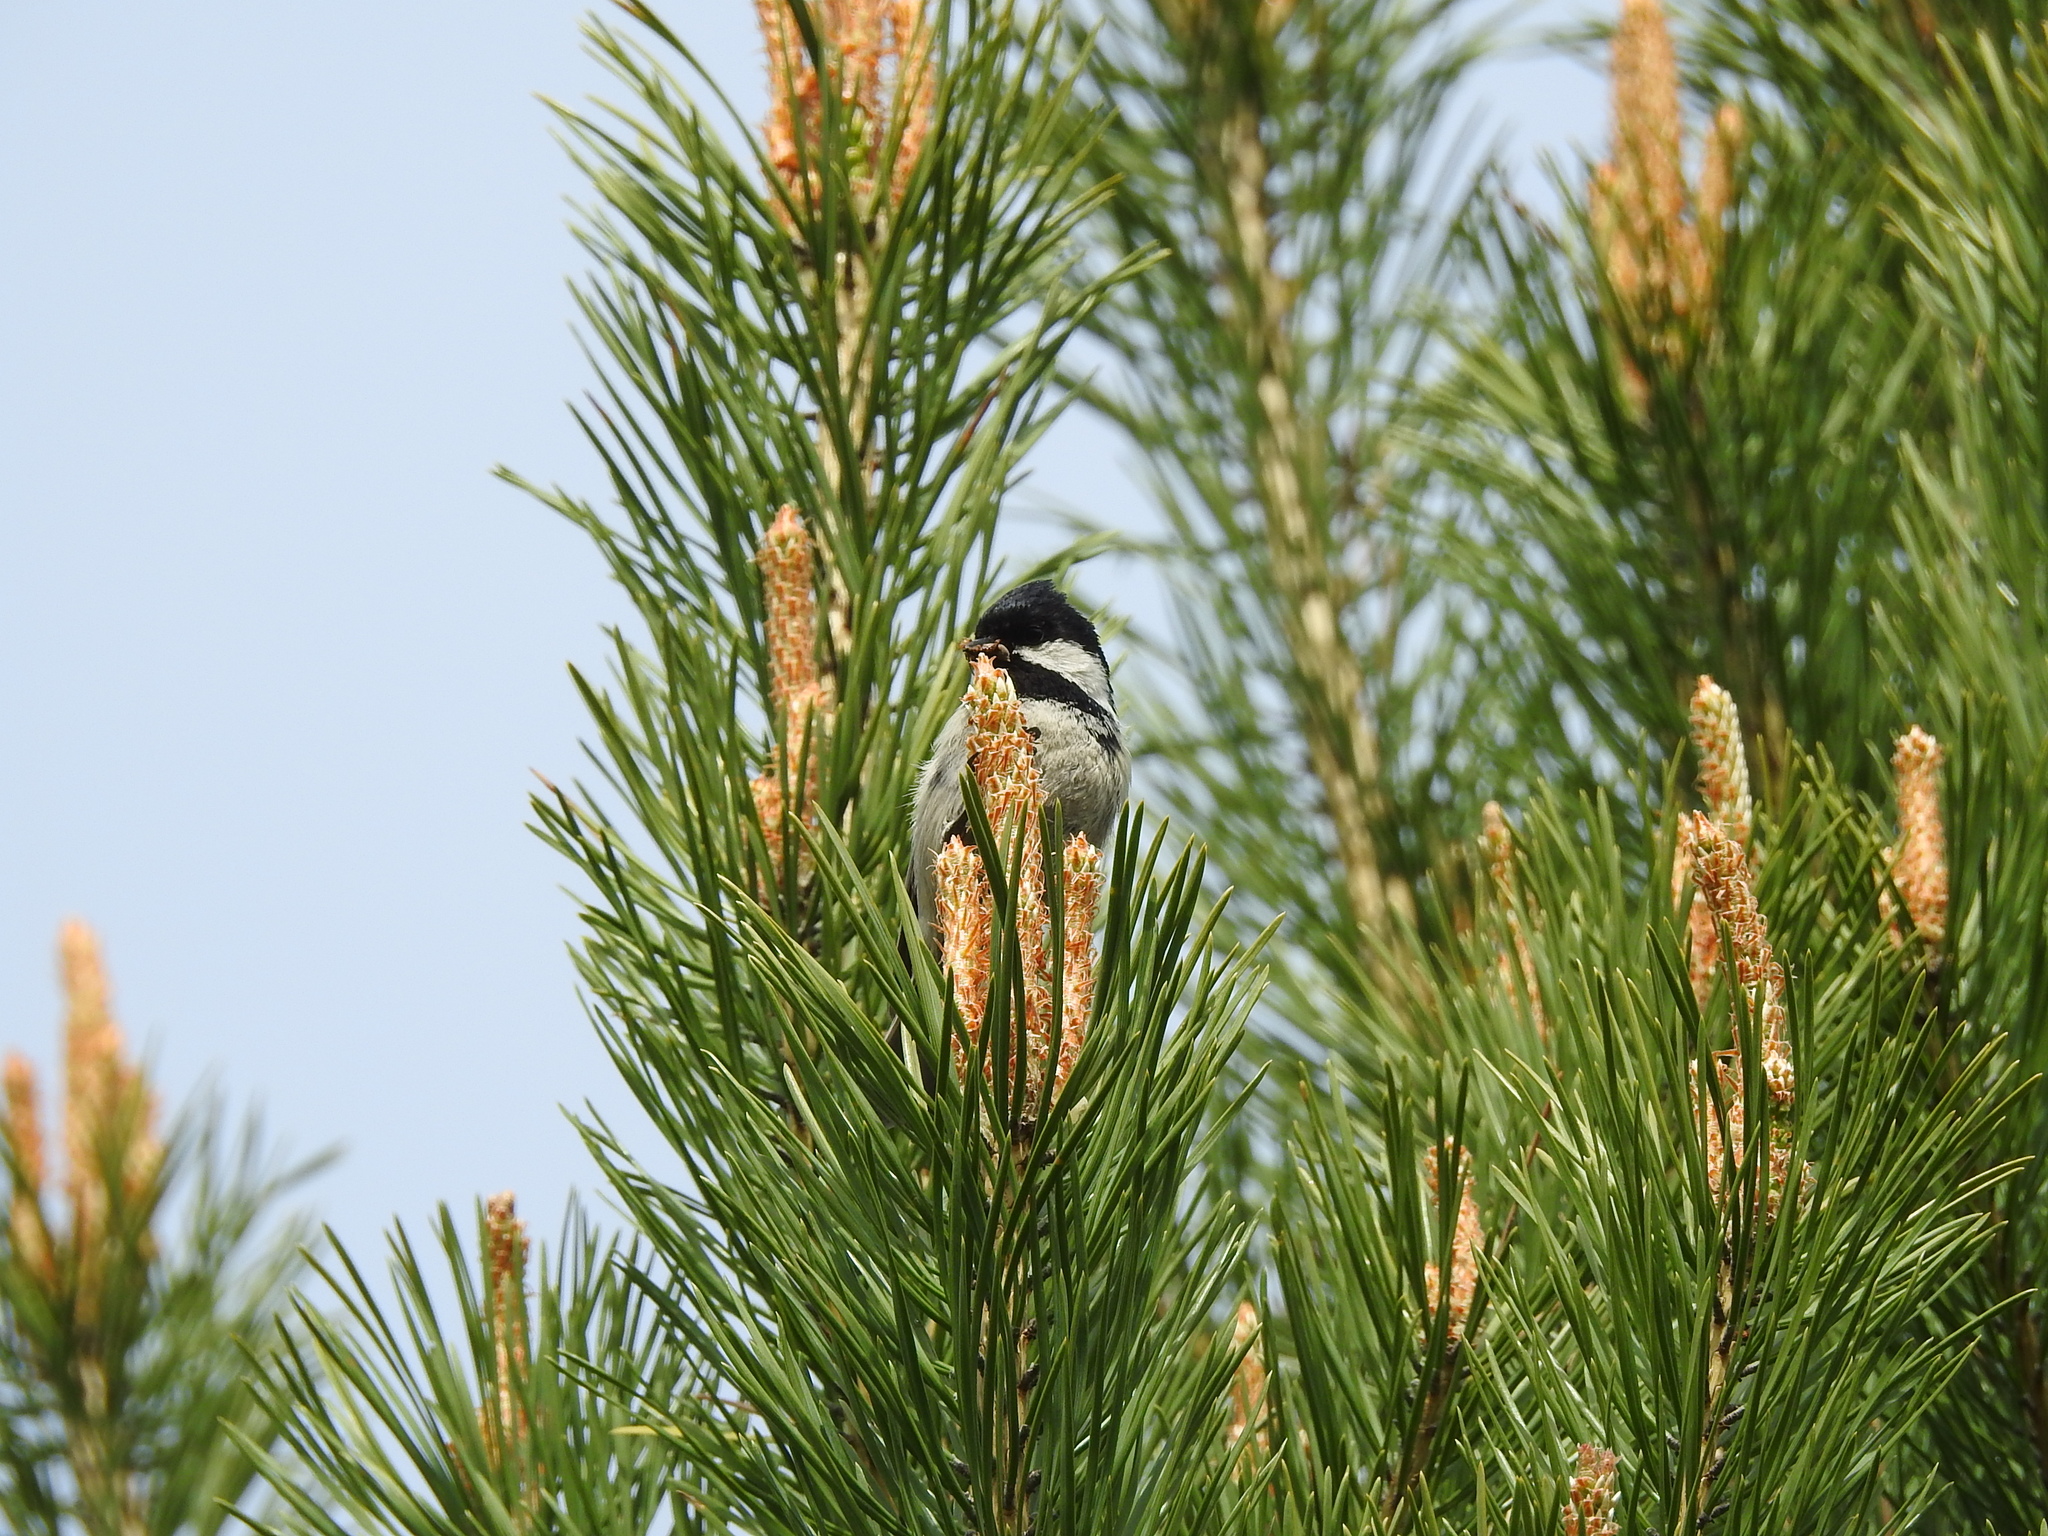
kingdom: Animalia
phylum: Chordata
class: Aves
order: Passeriformes
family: Paridae
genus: Periparus
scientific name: Periparus ater
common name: Coal tit
